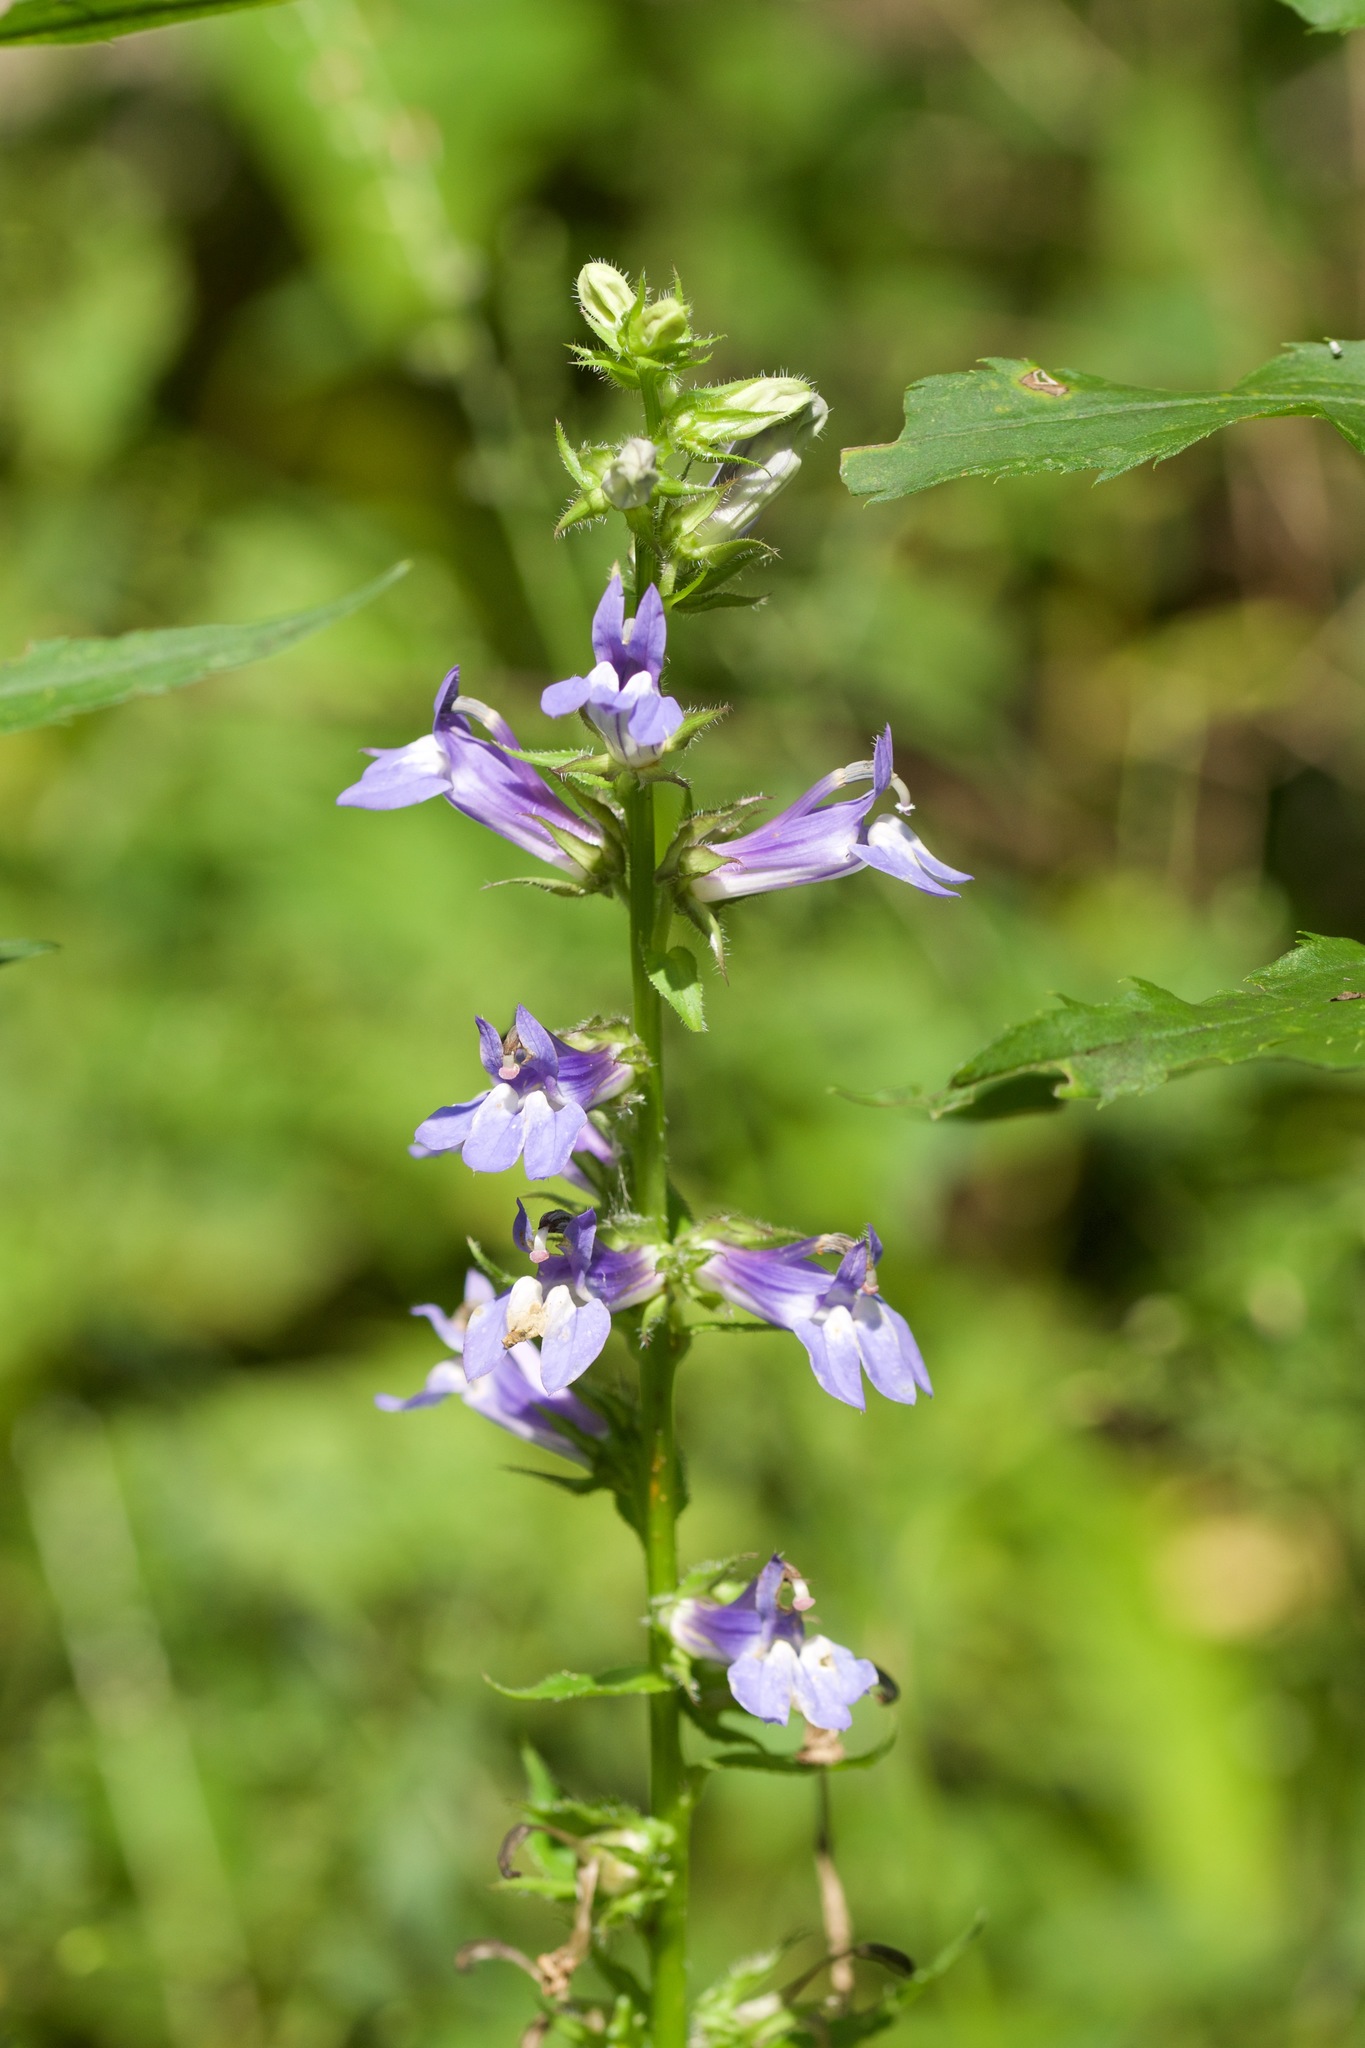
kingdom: Plantae
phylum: Tracheophyta
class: Magnoliopsida
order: Asterales
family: Campanulaceae
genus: Lobelia
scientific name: Lobelia siphilitica
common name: Great lobelia
